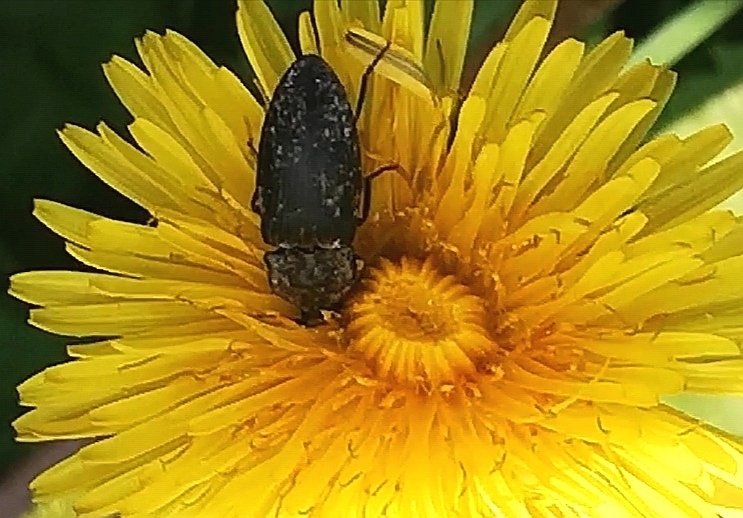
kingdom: Animalia
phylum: Arthropoda
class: Insecta
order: Coleoptera
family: Elateridae
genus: Agrypnus
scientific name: Agrypnus murinus
